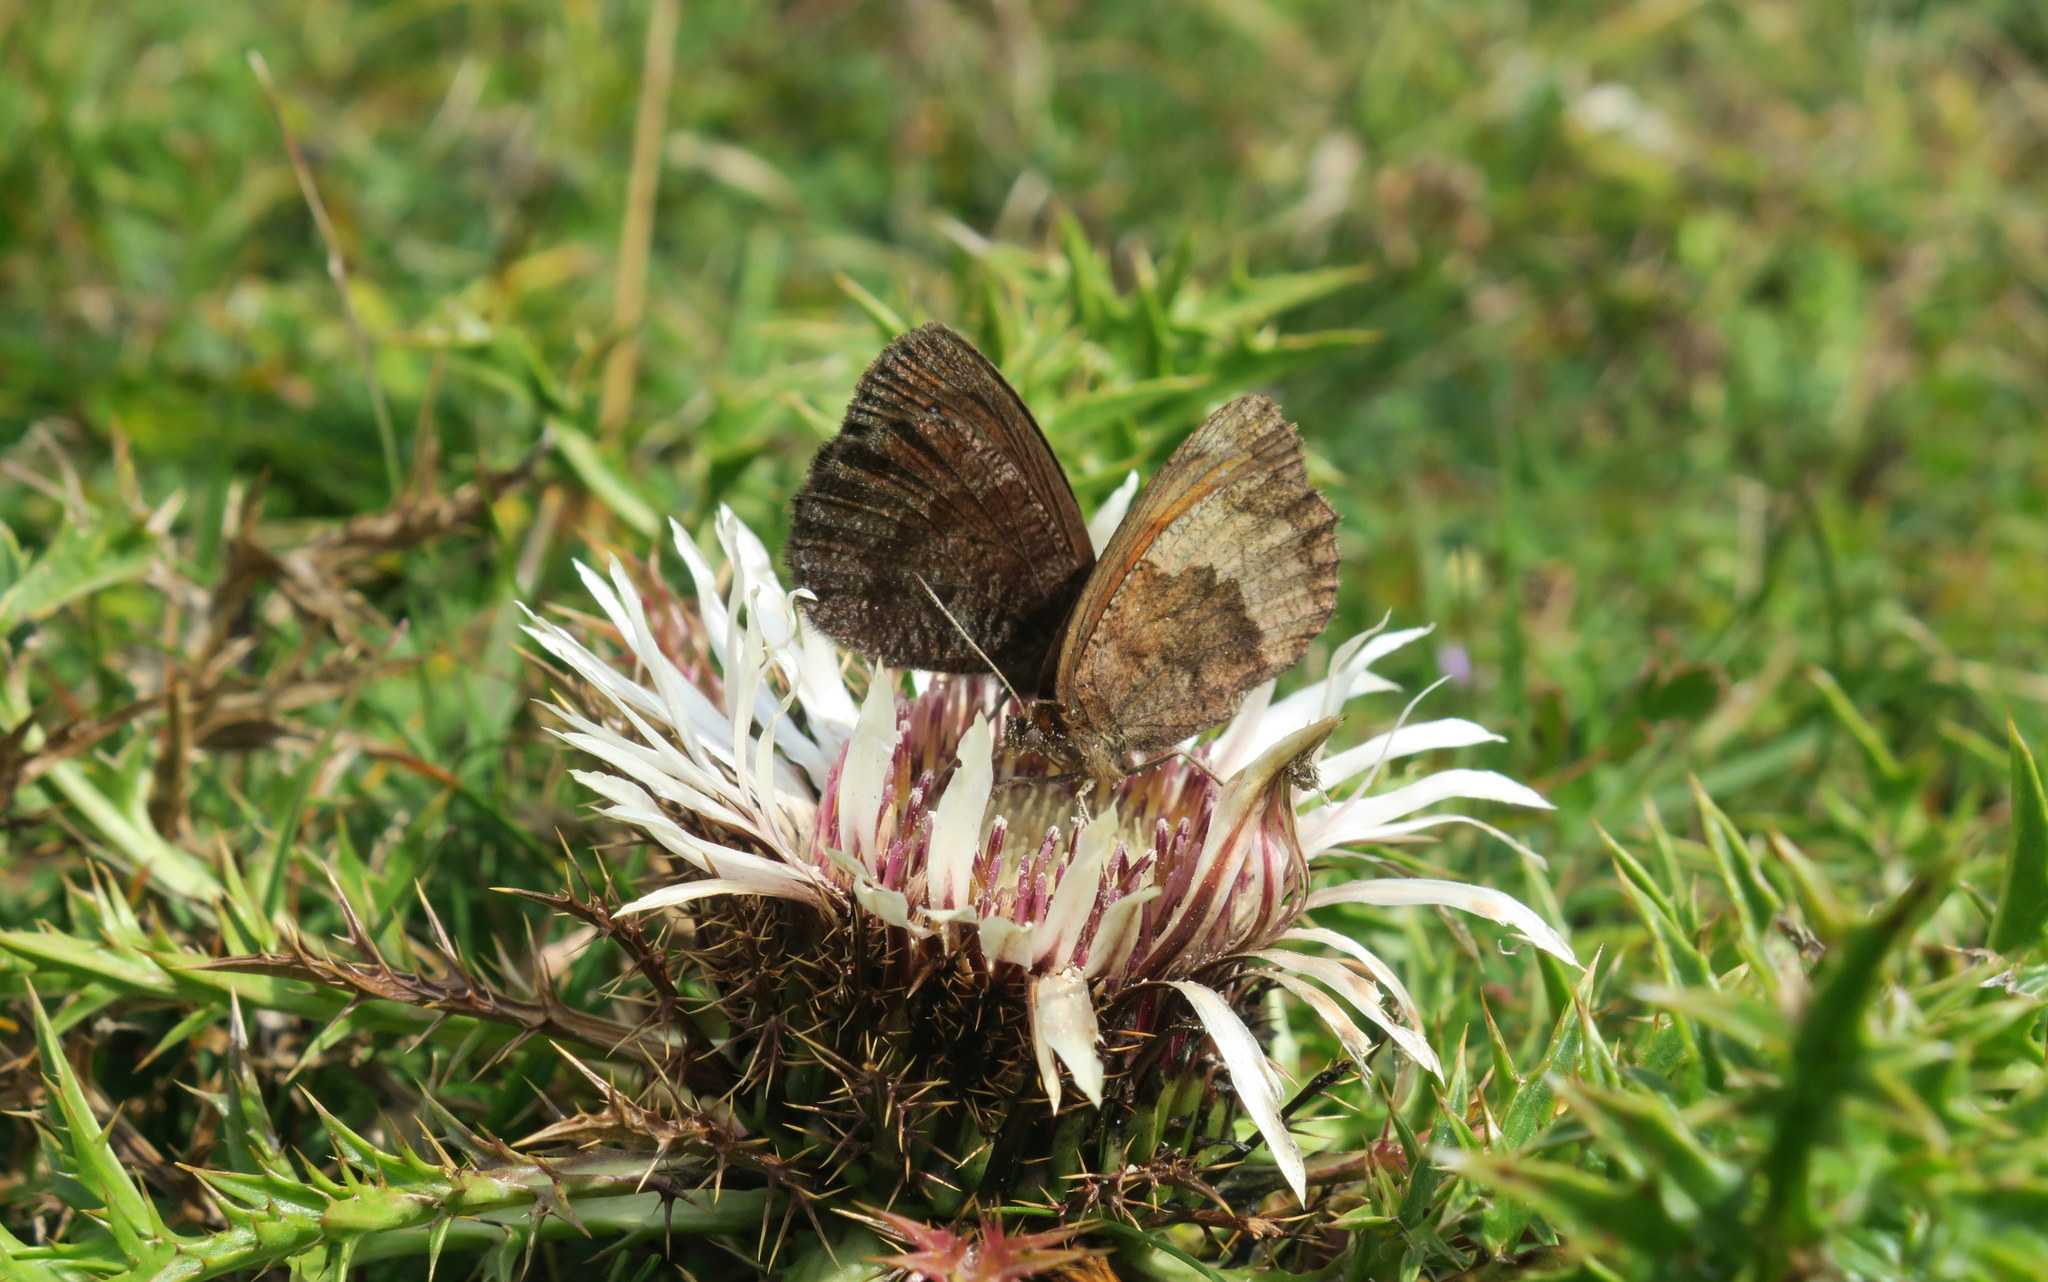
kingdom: Animalia
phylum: Arthropoda
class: Insecta
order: Lepidoptera
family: Nymphalidae
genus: Erebia
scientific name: Erebia pronoe
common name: Water ringlet
